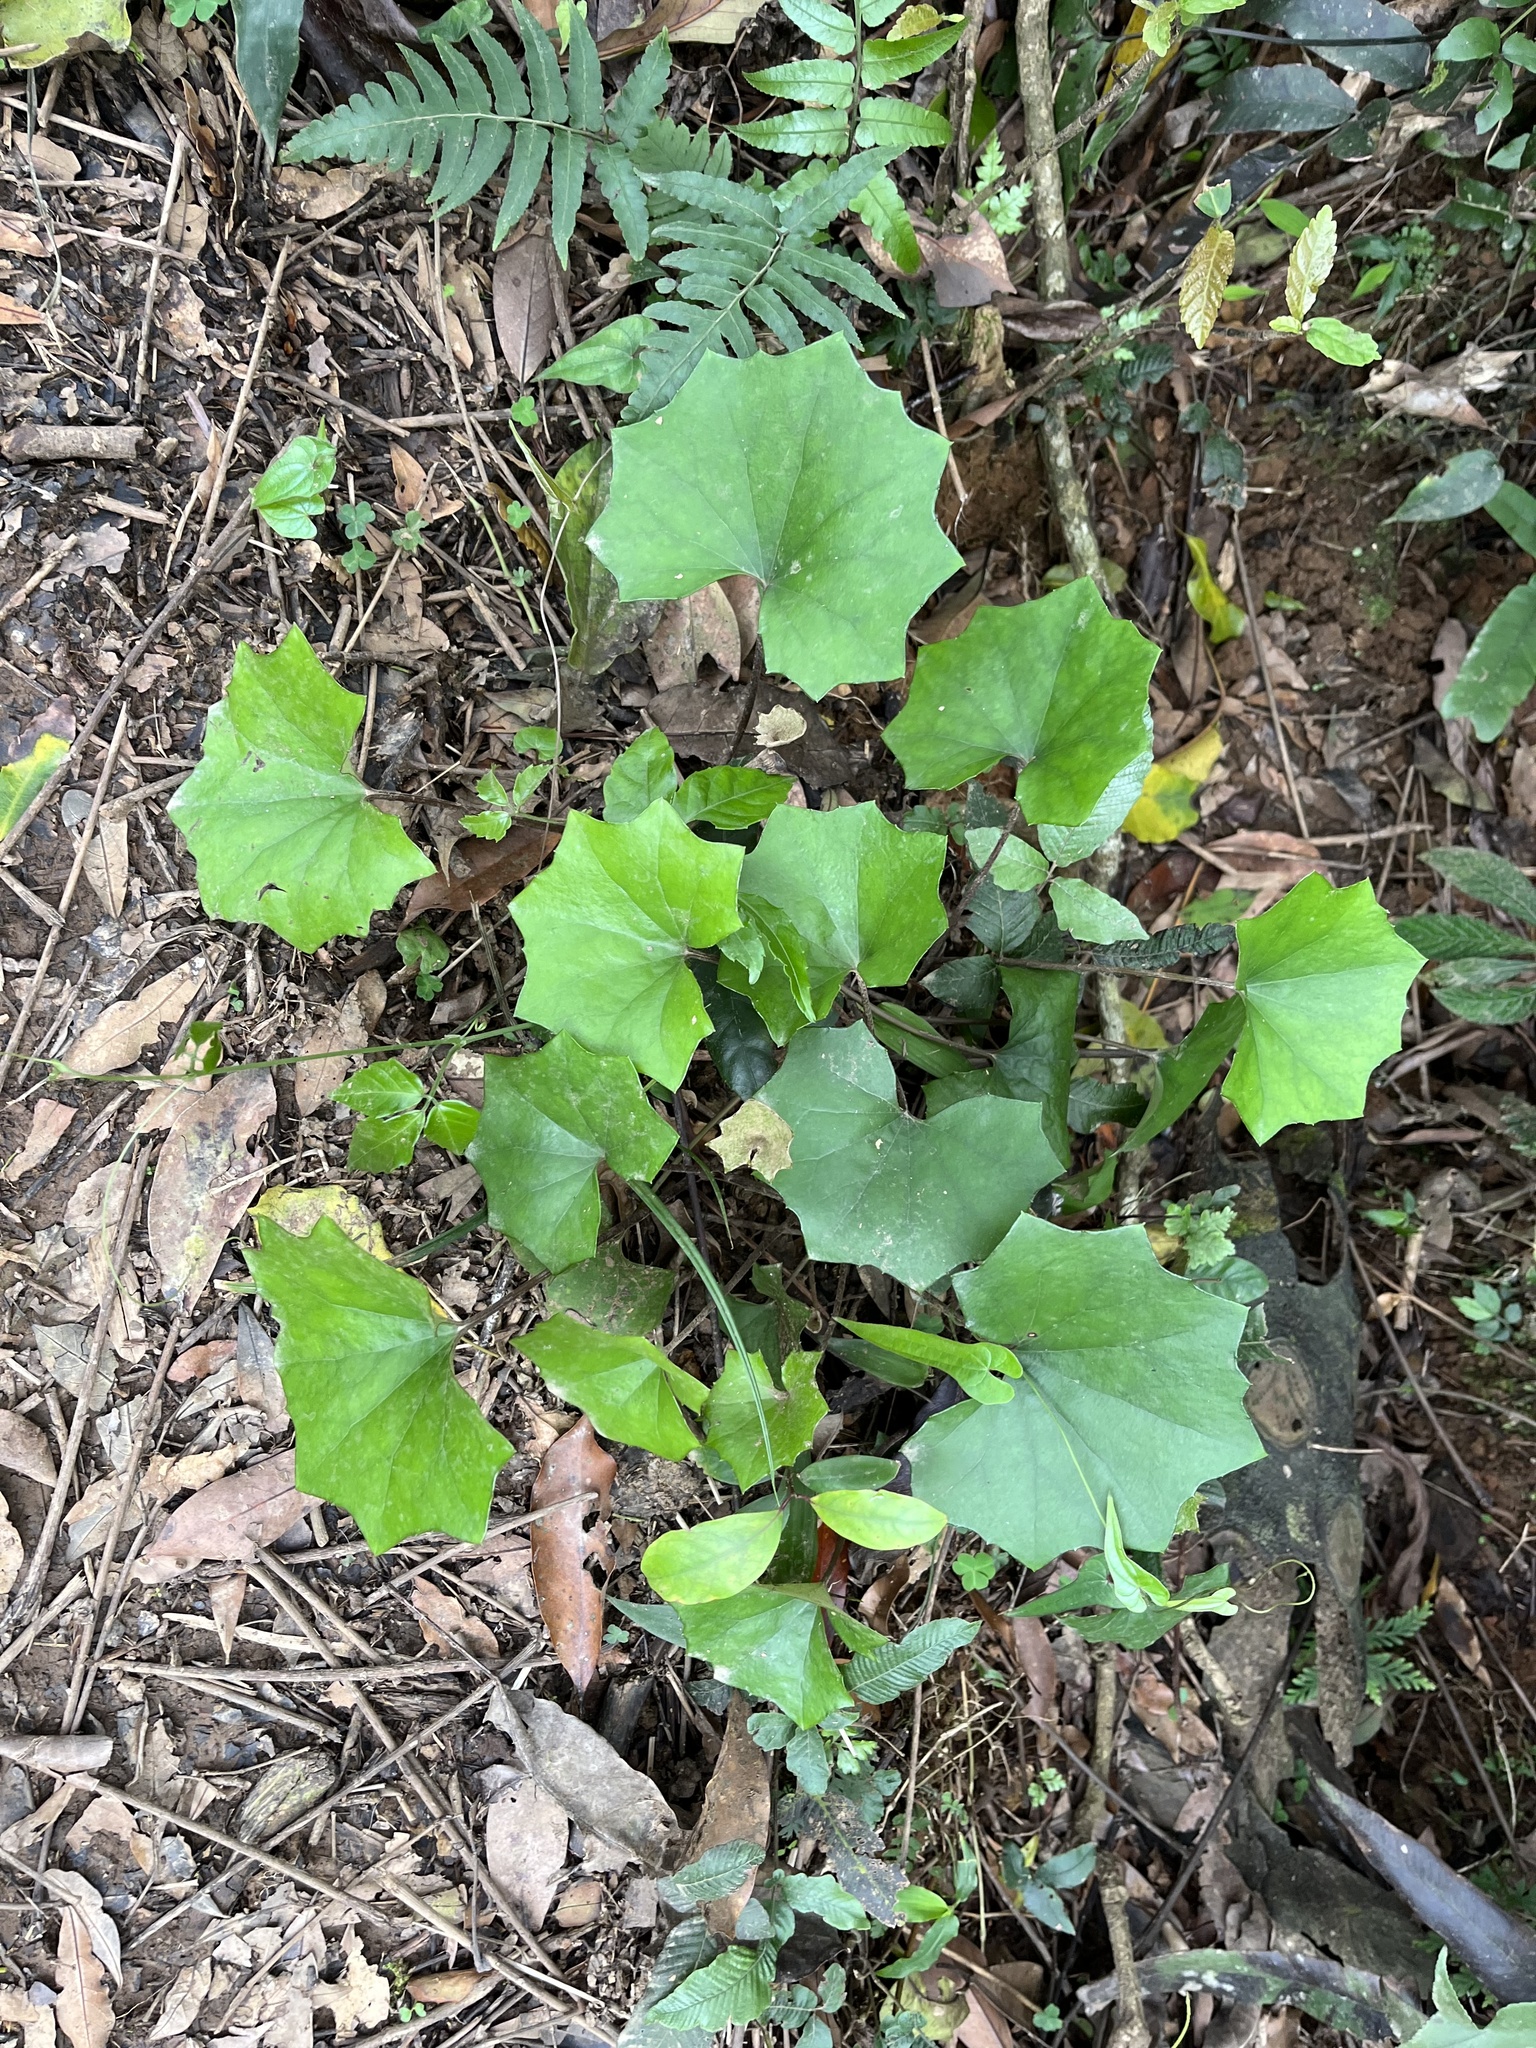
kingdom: Plantae
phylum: Tracheophyta
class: Magnoliopsida
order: Asterales
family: Asteraceae
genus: Farfugium
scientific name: Farfugium japonicum
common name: Leopardplant
